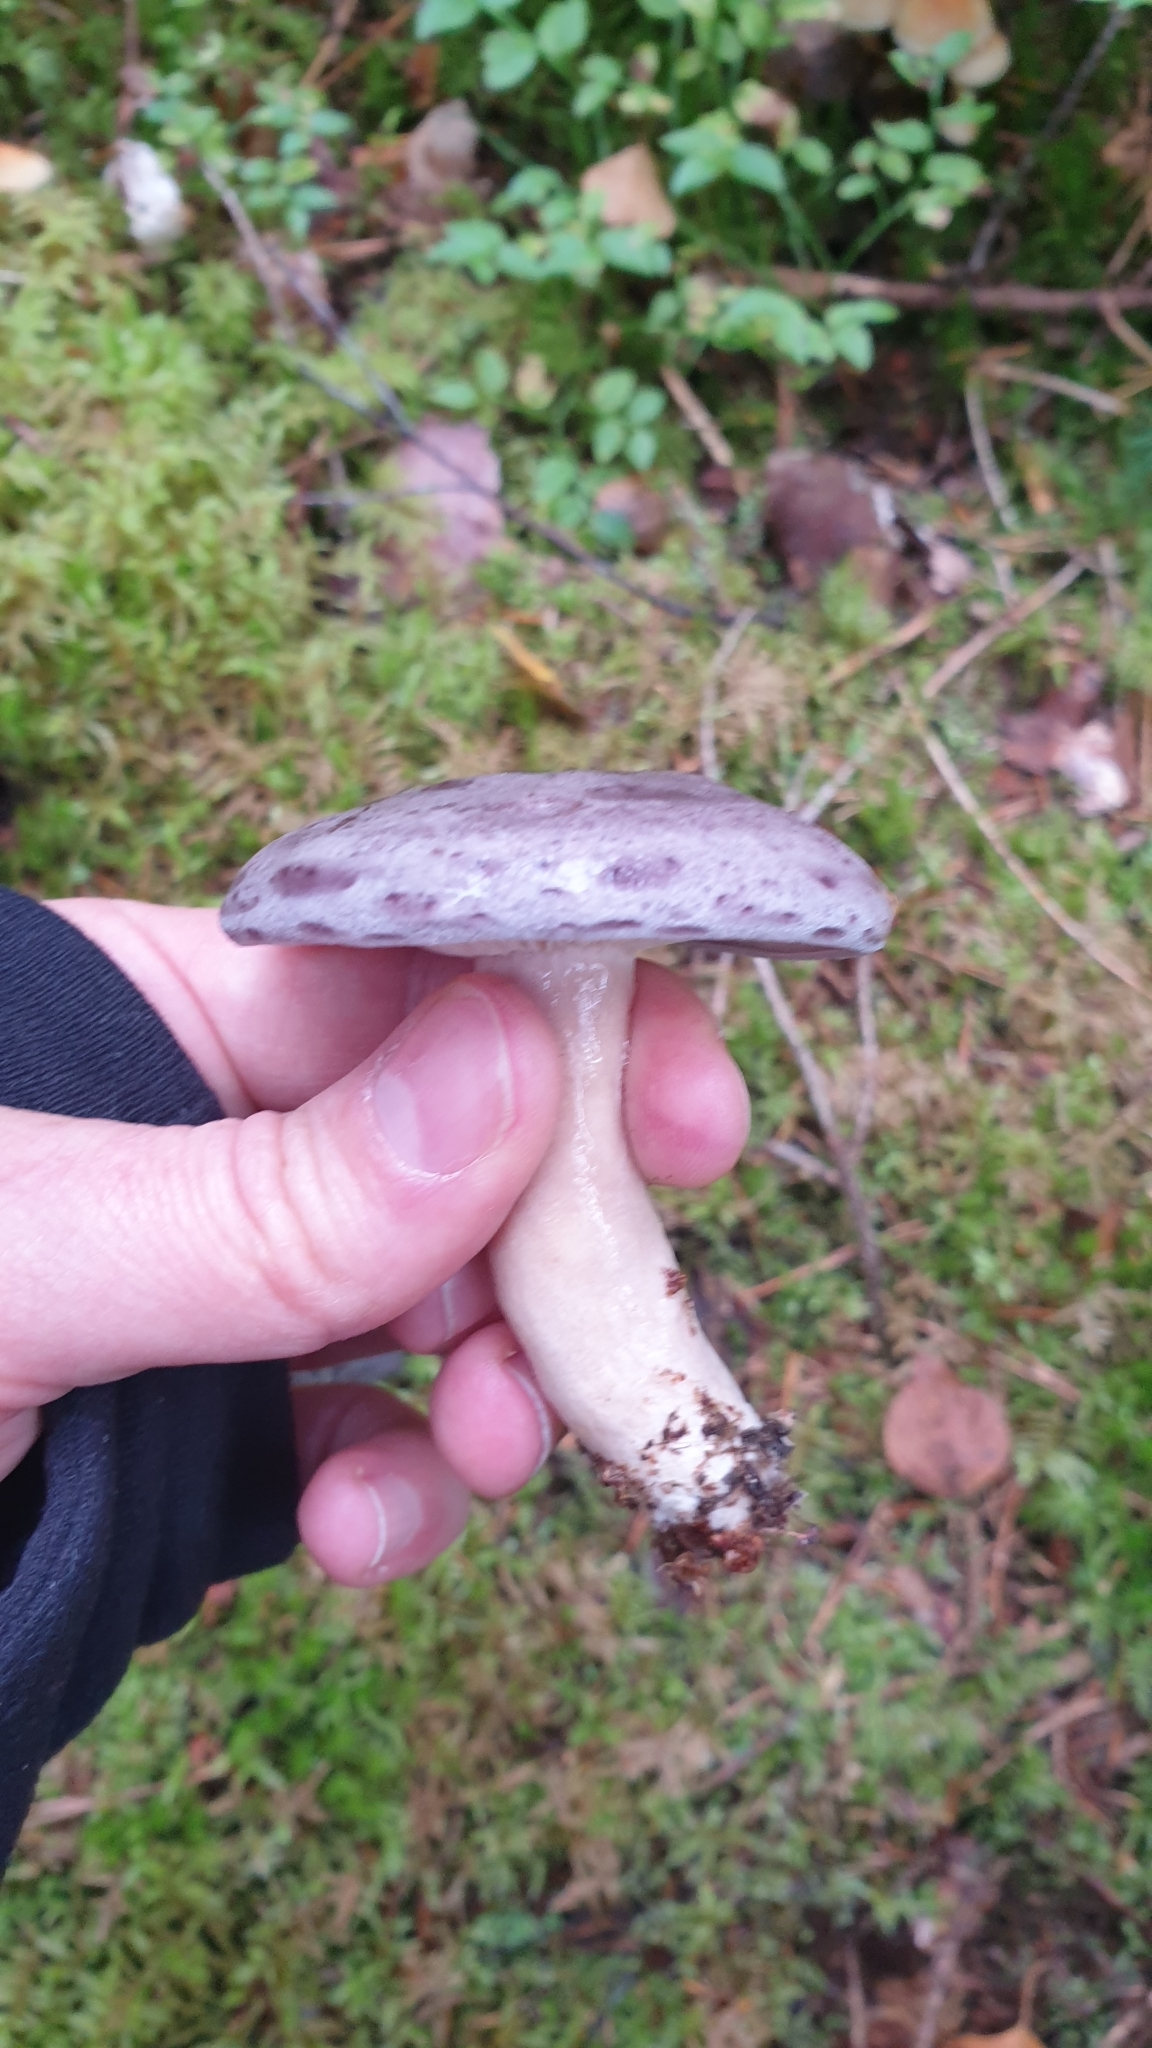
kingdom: Fungi
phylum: Basidiomycota
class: Agaricomycetes
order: Russulales
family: Russulaceae
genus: Lactarius
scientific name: Lactarius trivialis
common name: Tacked milkcap
